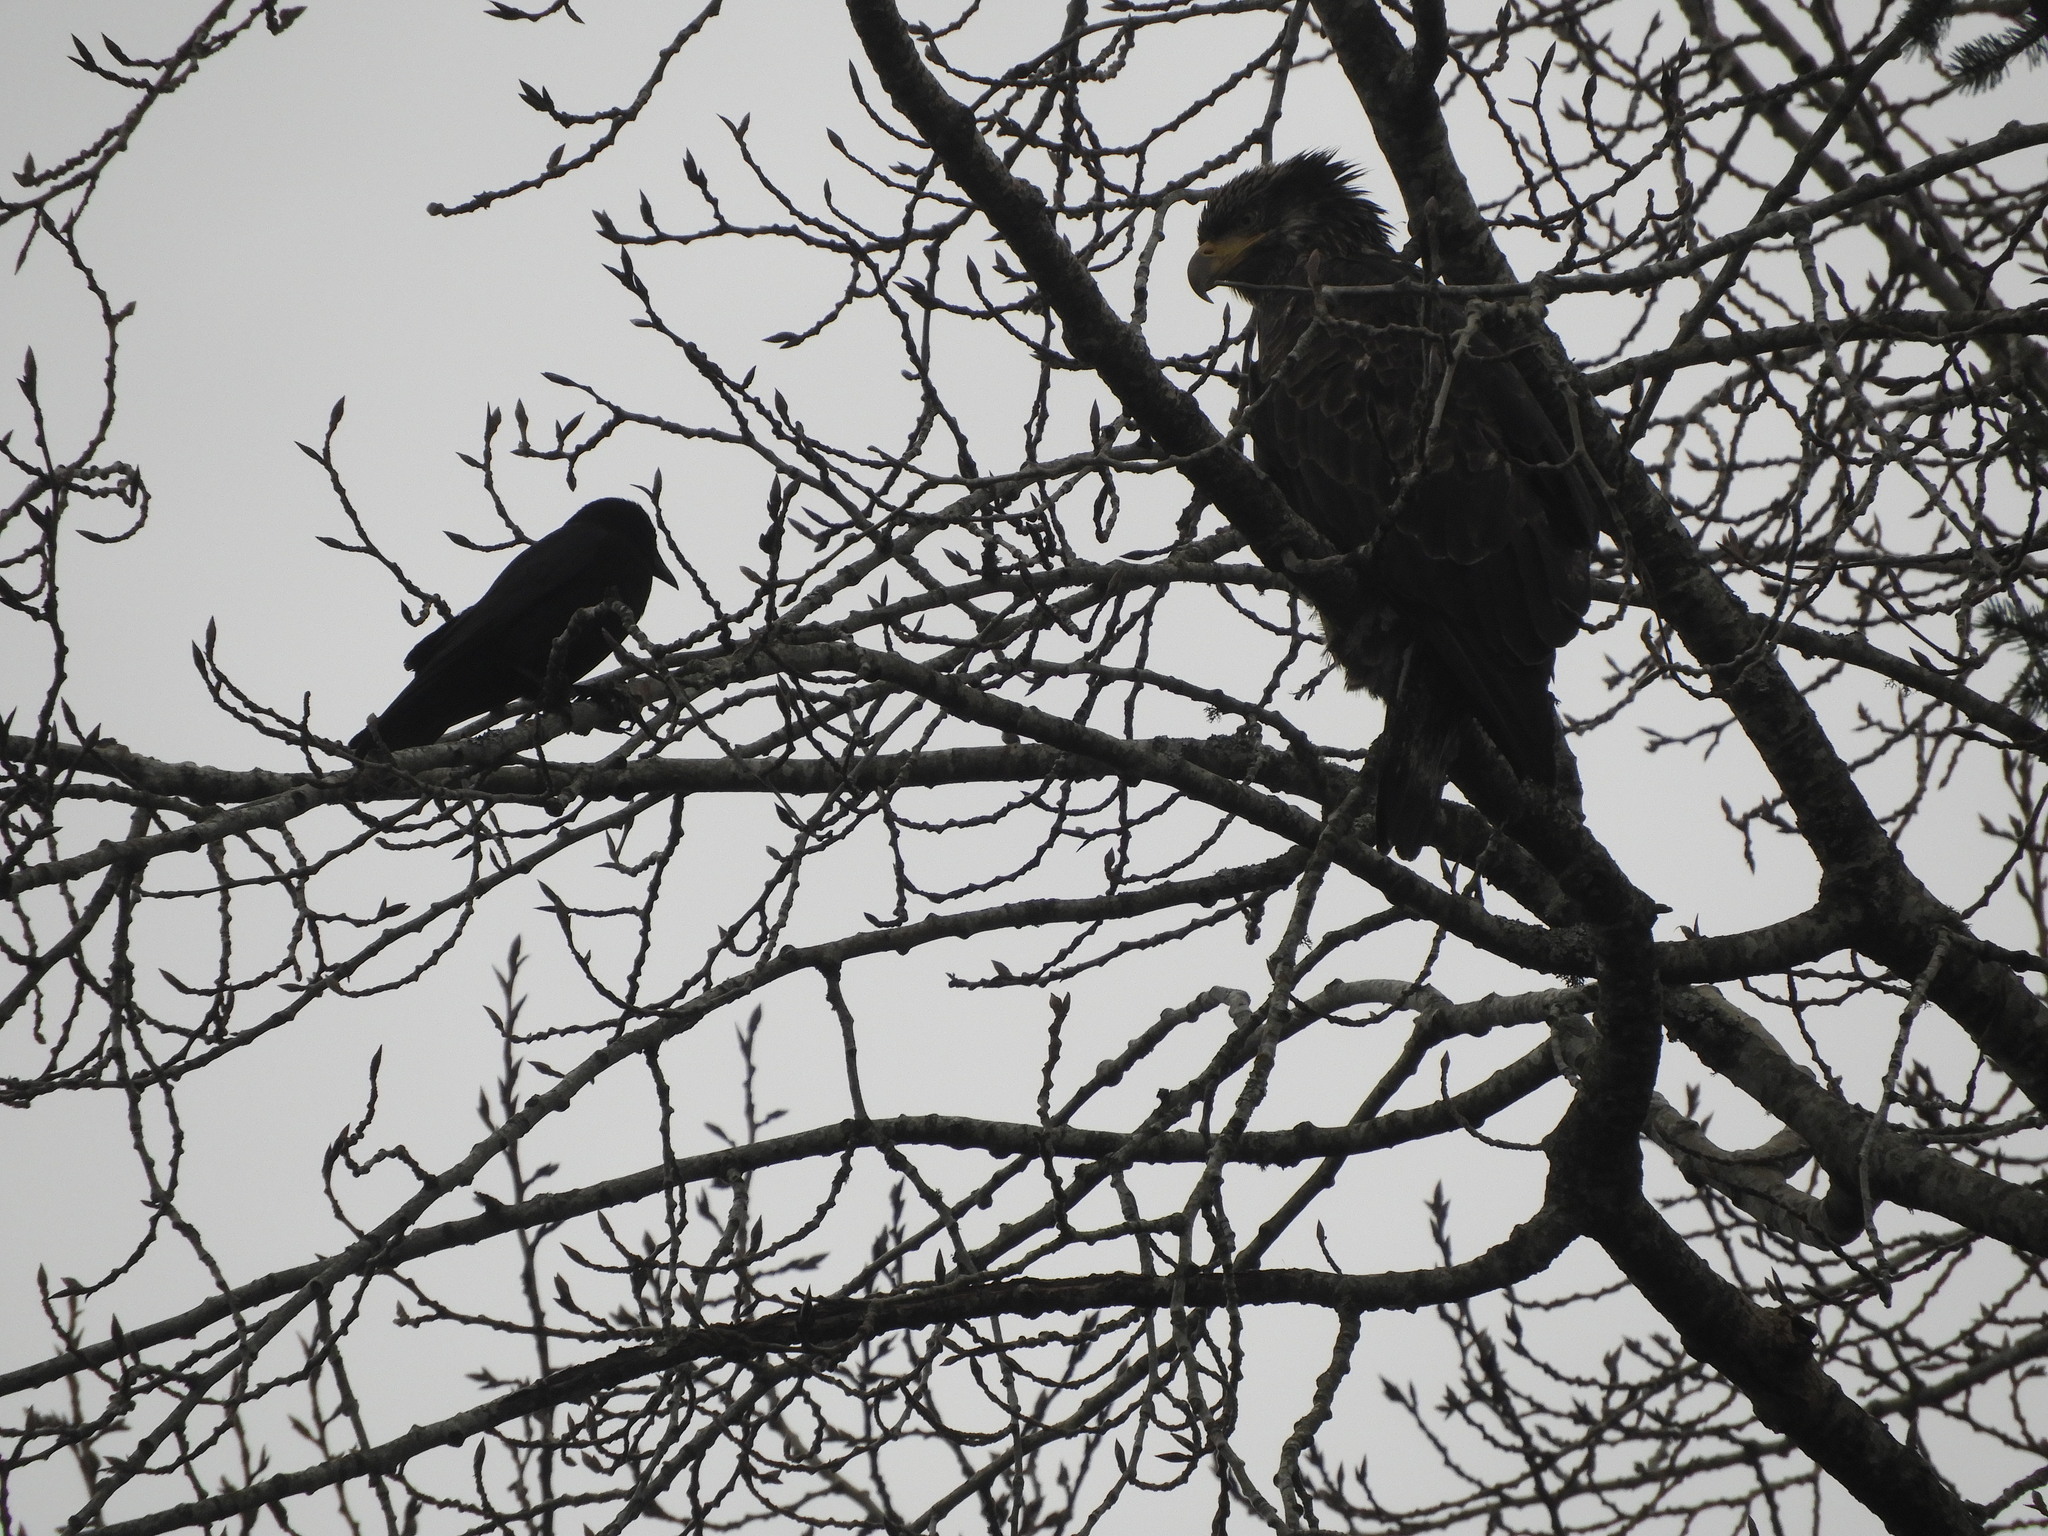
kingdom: Animalia
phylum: Chordata
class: Aves
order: Accipitriformes
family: Accipitridae
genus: Haliaeetus
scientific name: Haliaeetus leucocephalus
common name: Bald eagle
